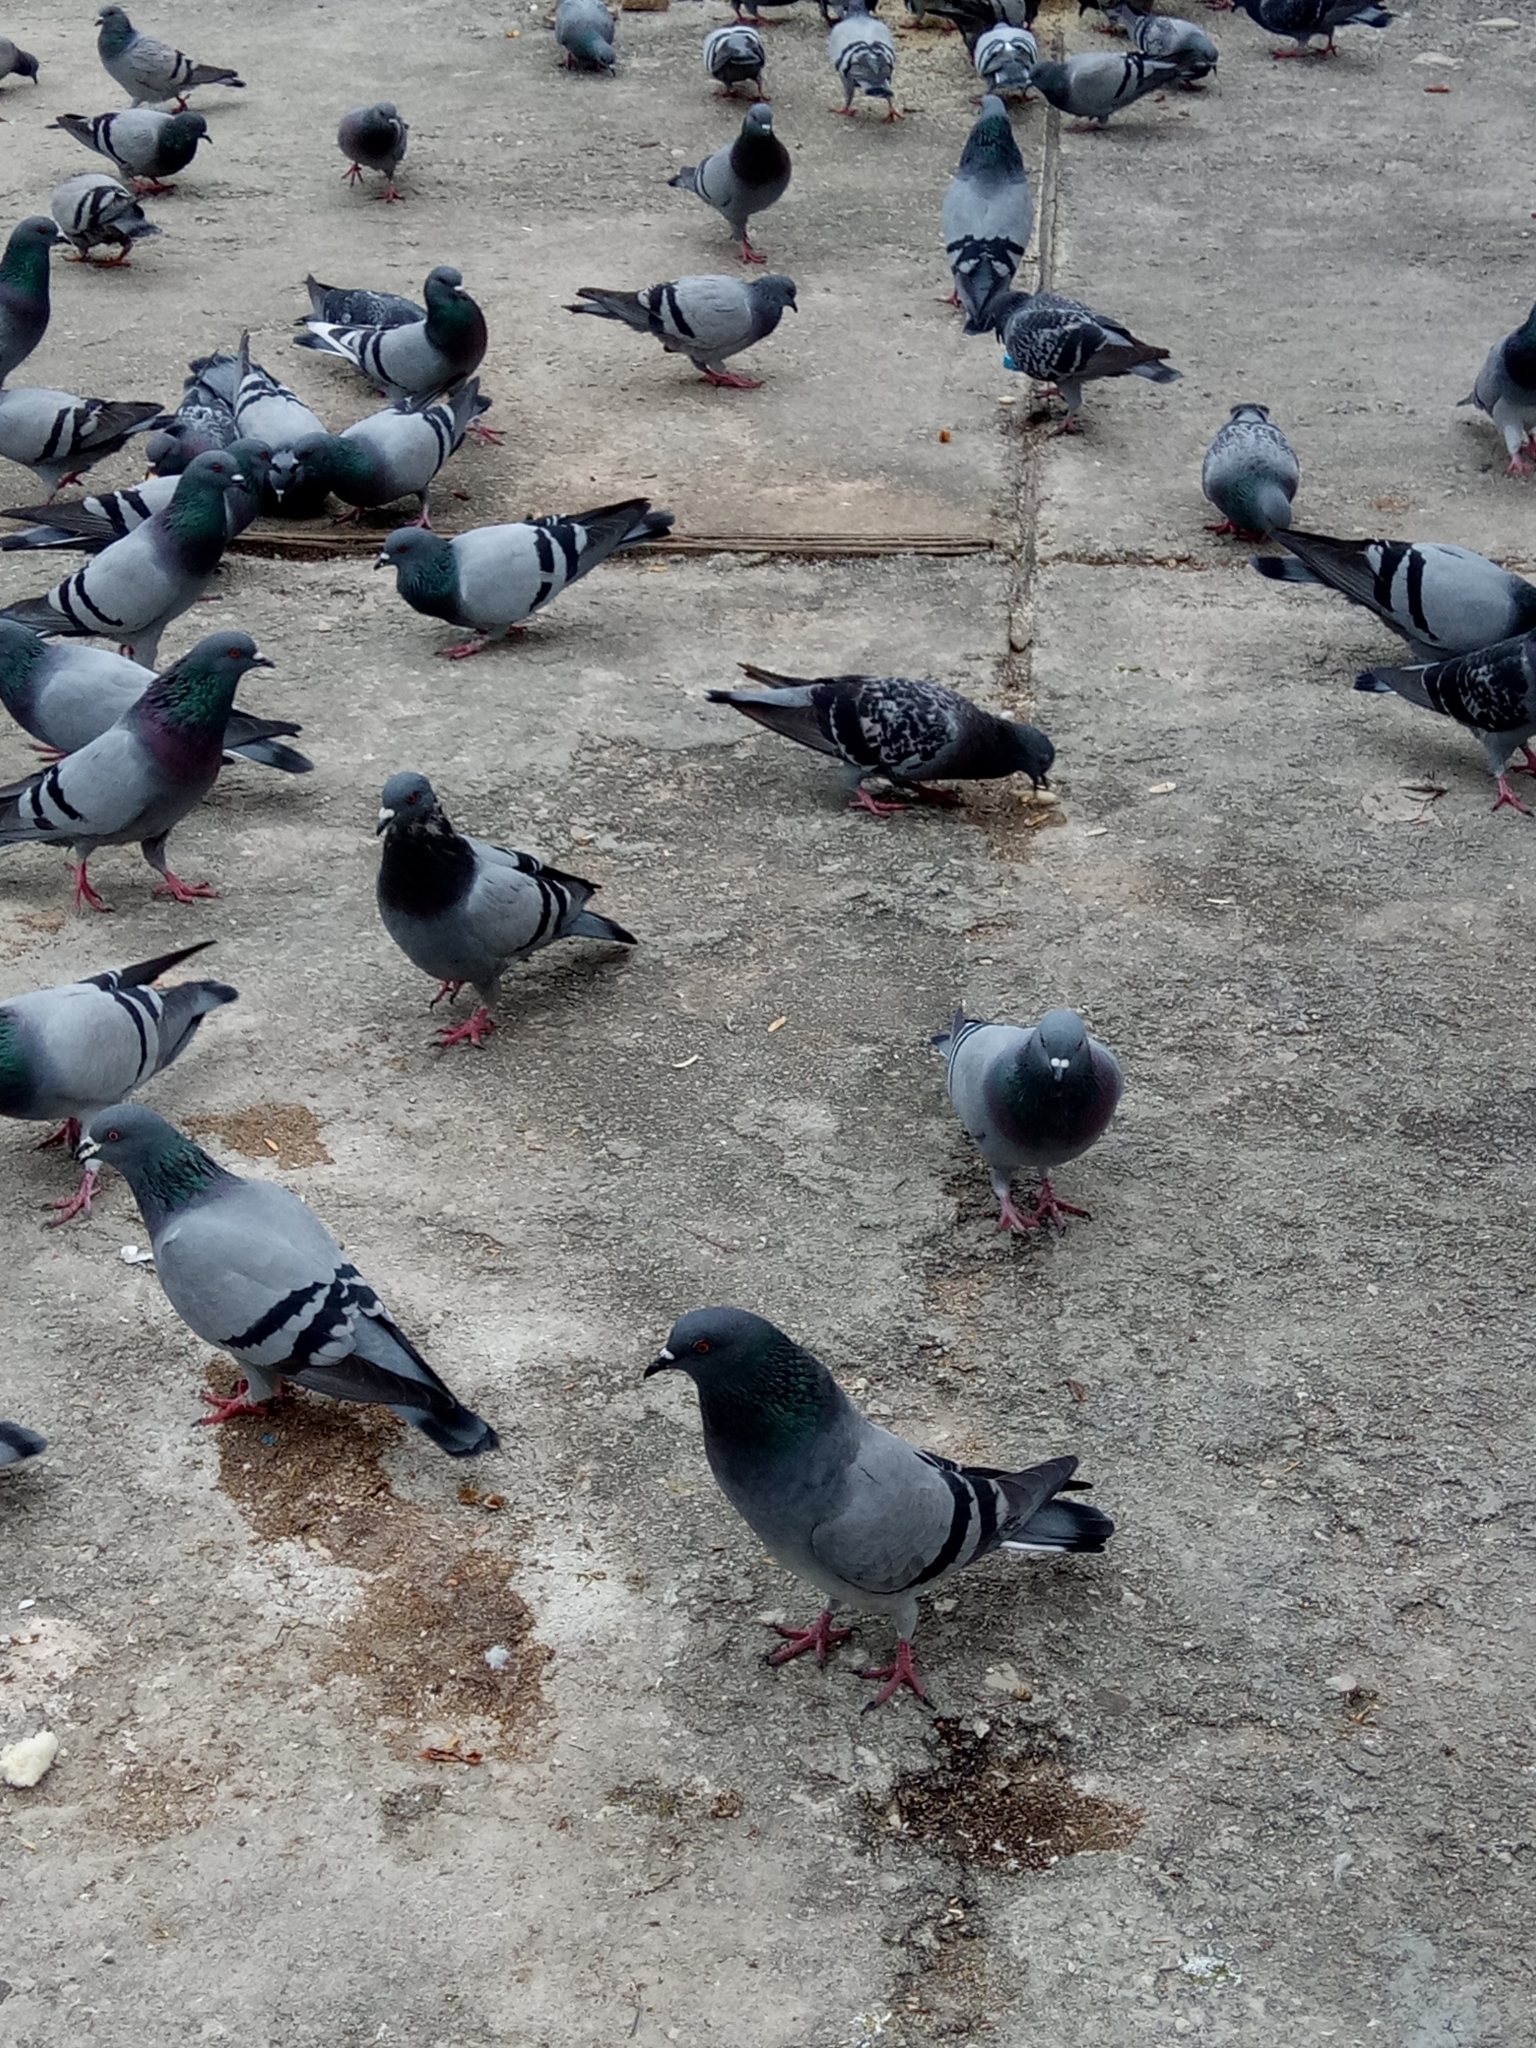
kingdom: Animalia
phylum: Chordata
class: Aves
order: Columbiformes
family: Columbidae
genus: Columba
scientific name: Columba livia
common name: Rock pigeon
